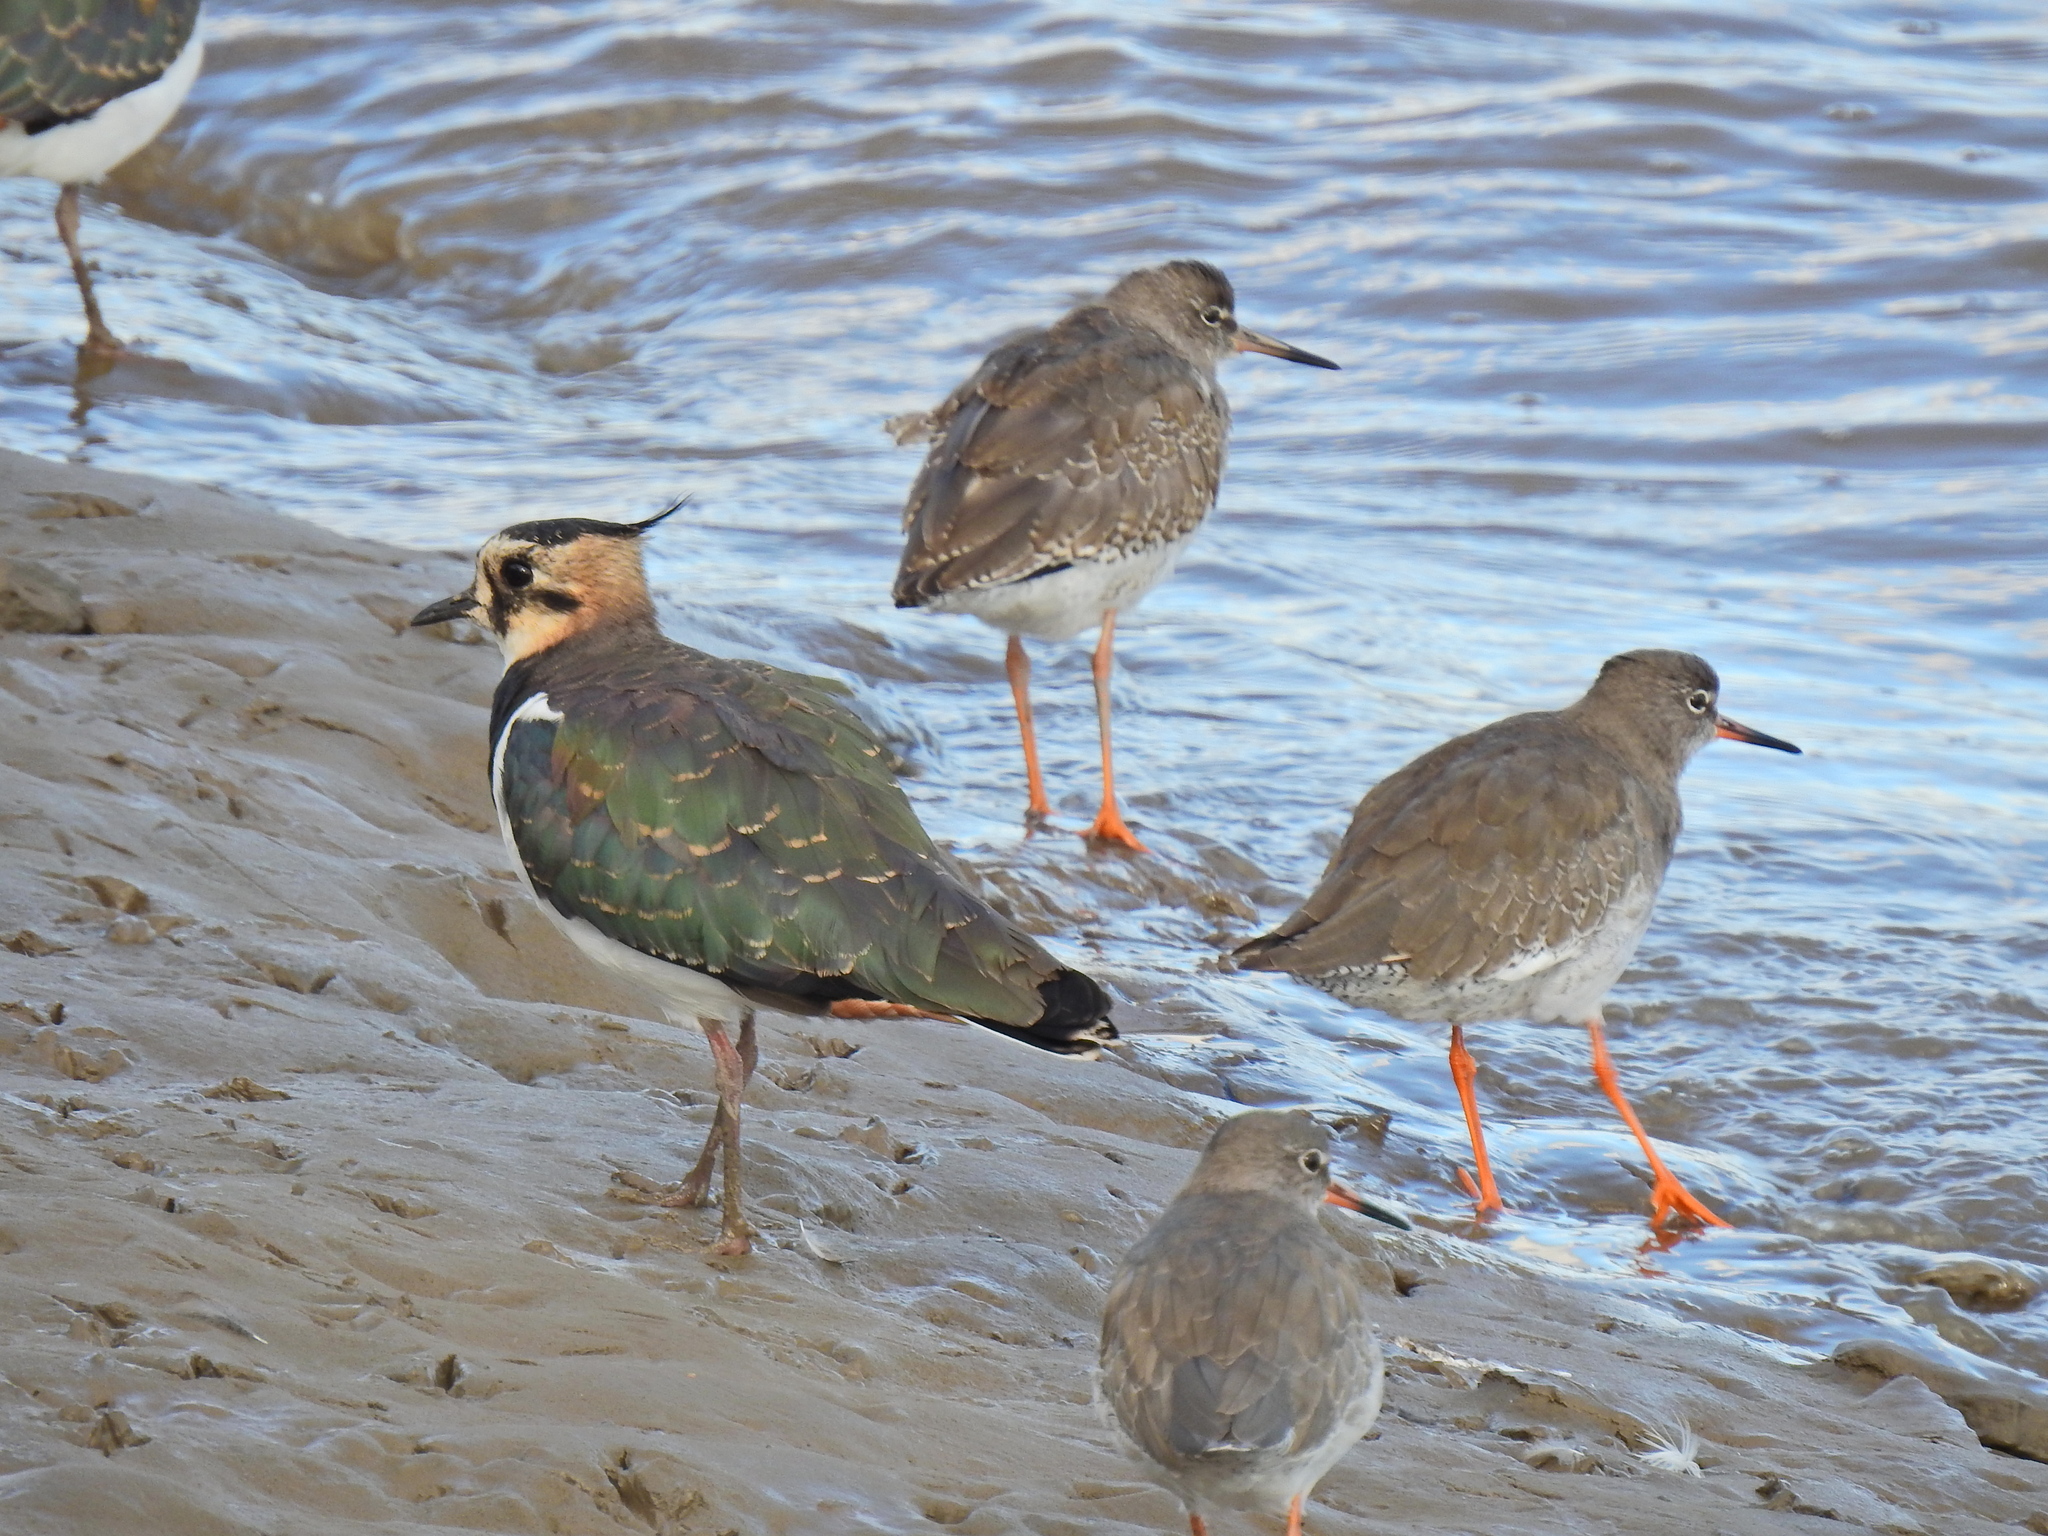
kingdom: Animalia
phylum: Chordata
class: Aves
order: Charadriiformes
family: Charadriidae
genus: Vanellus
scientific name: Vanellus vanellus
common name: Northern lapwing
